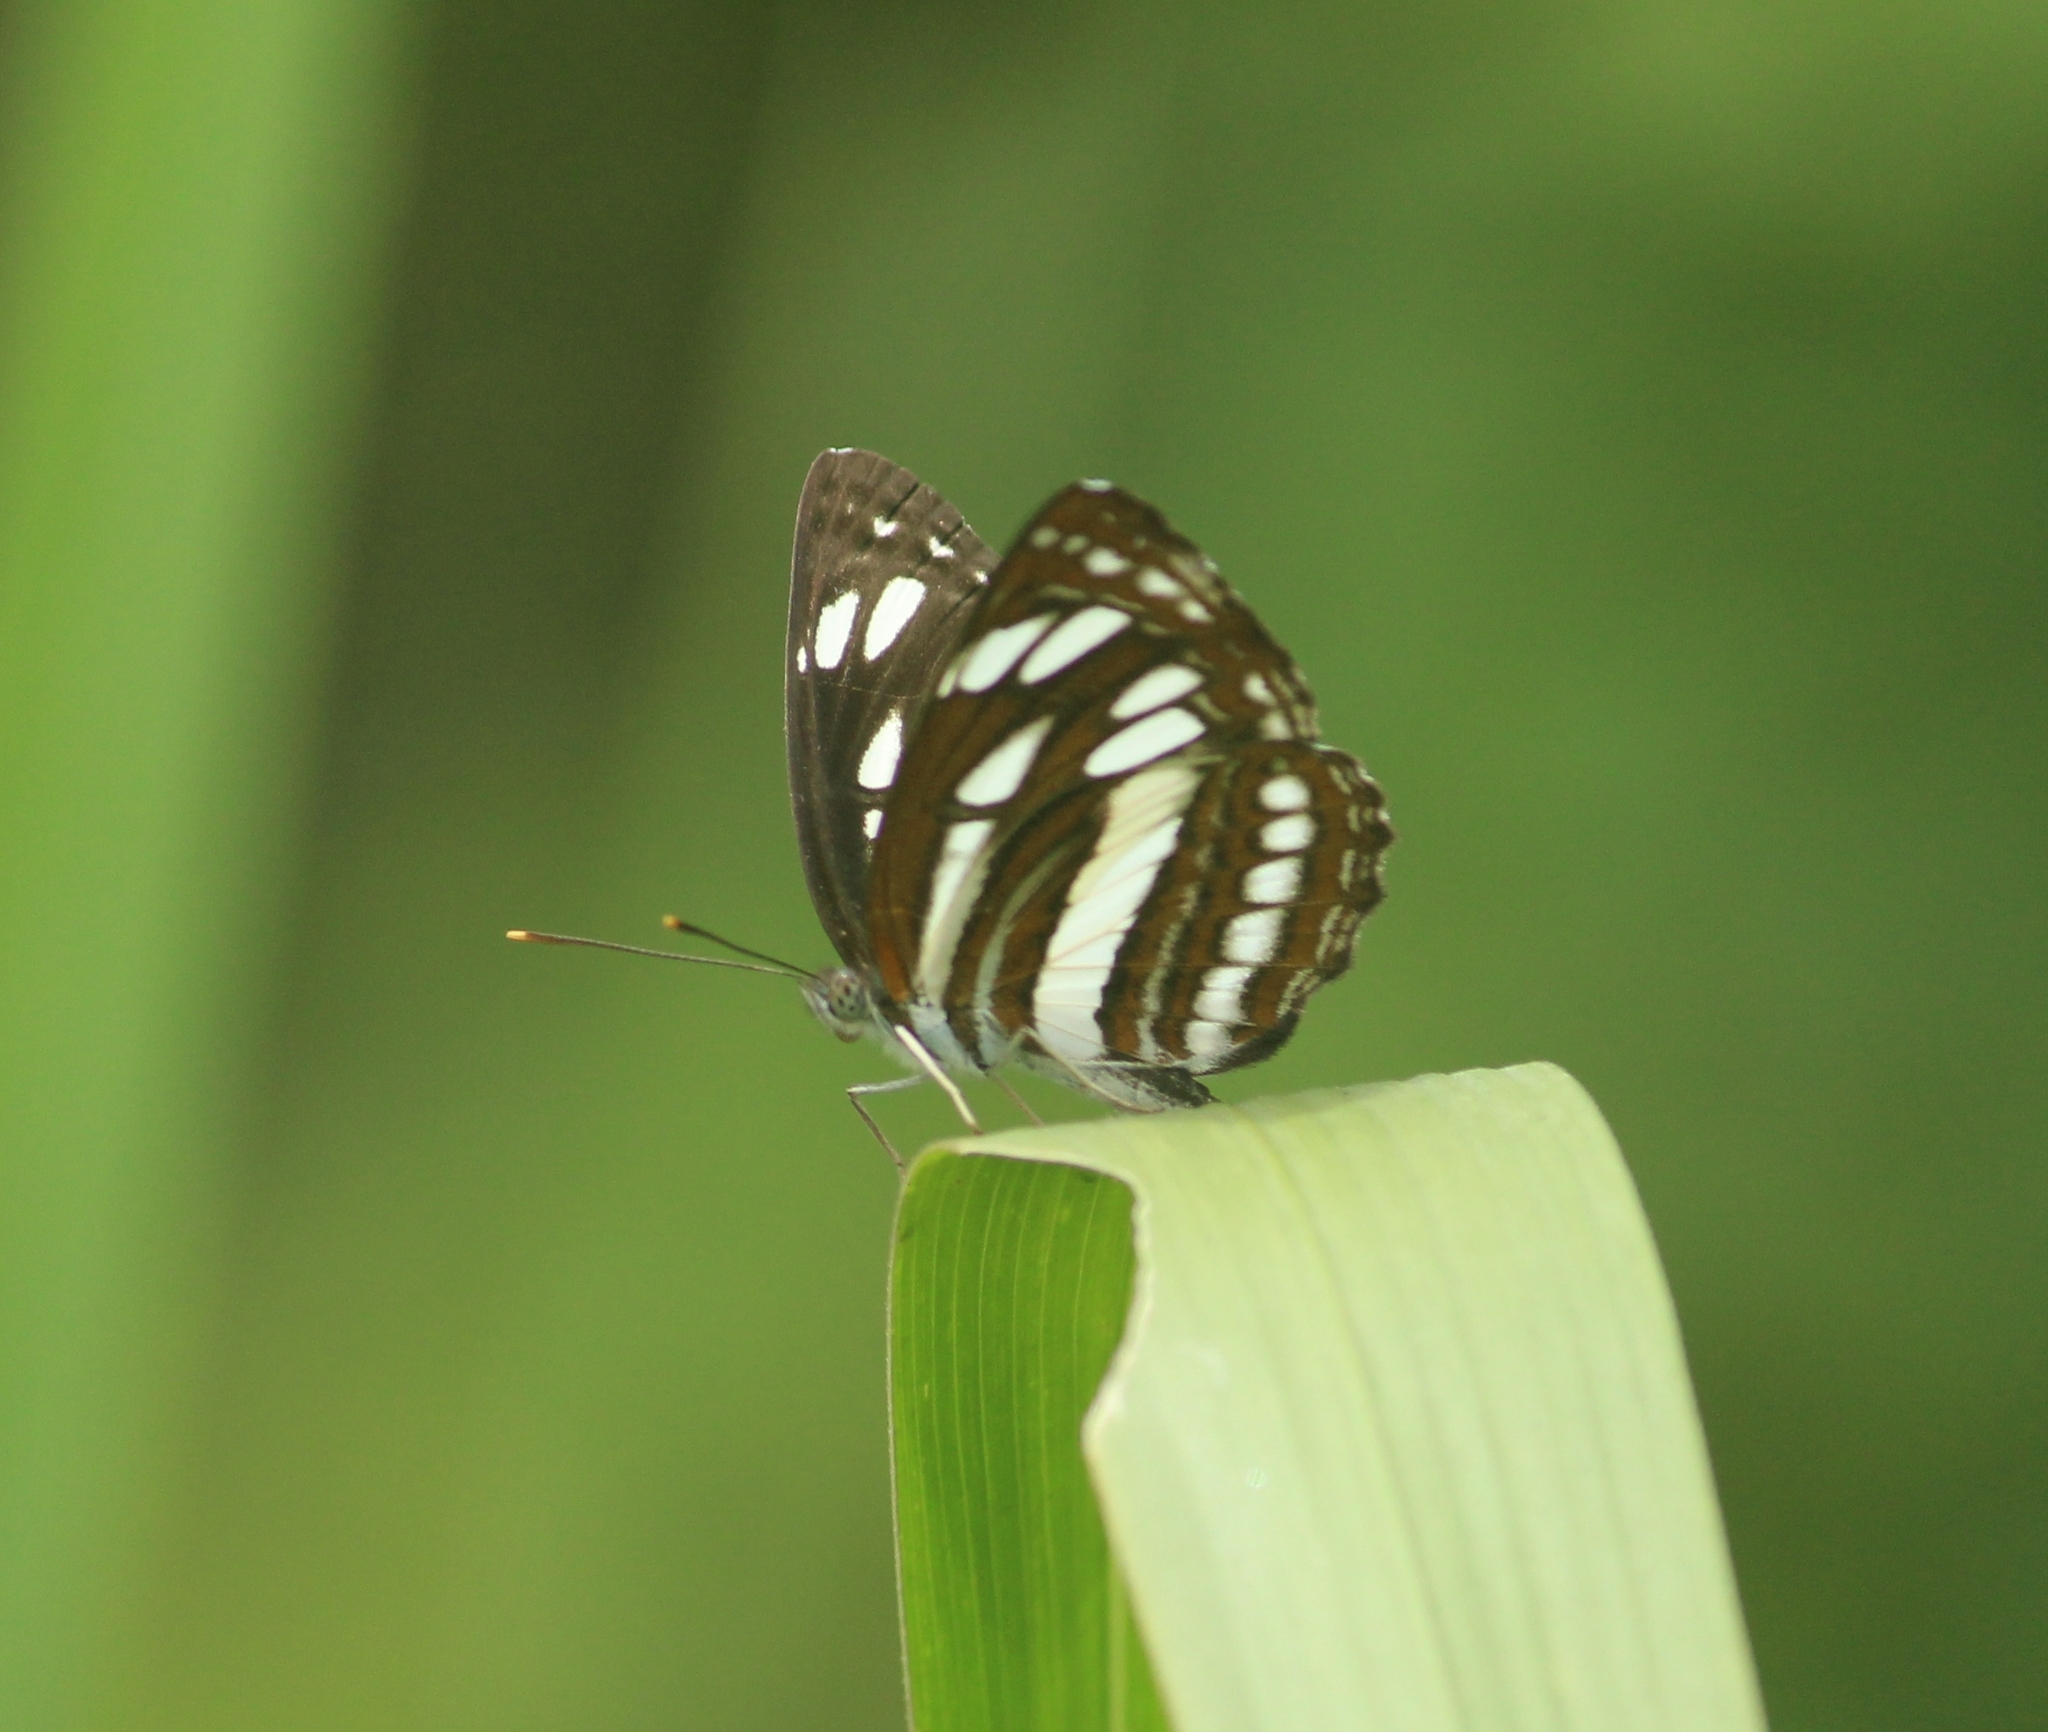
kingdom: Animalia
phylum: Arthropoda
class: Insecta
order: Lepidoptera
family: Nymphalidae
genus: Neptis
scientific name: Neptis hylas
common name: Common sailer
